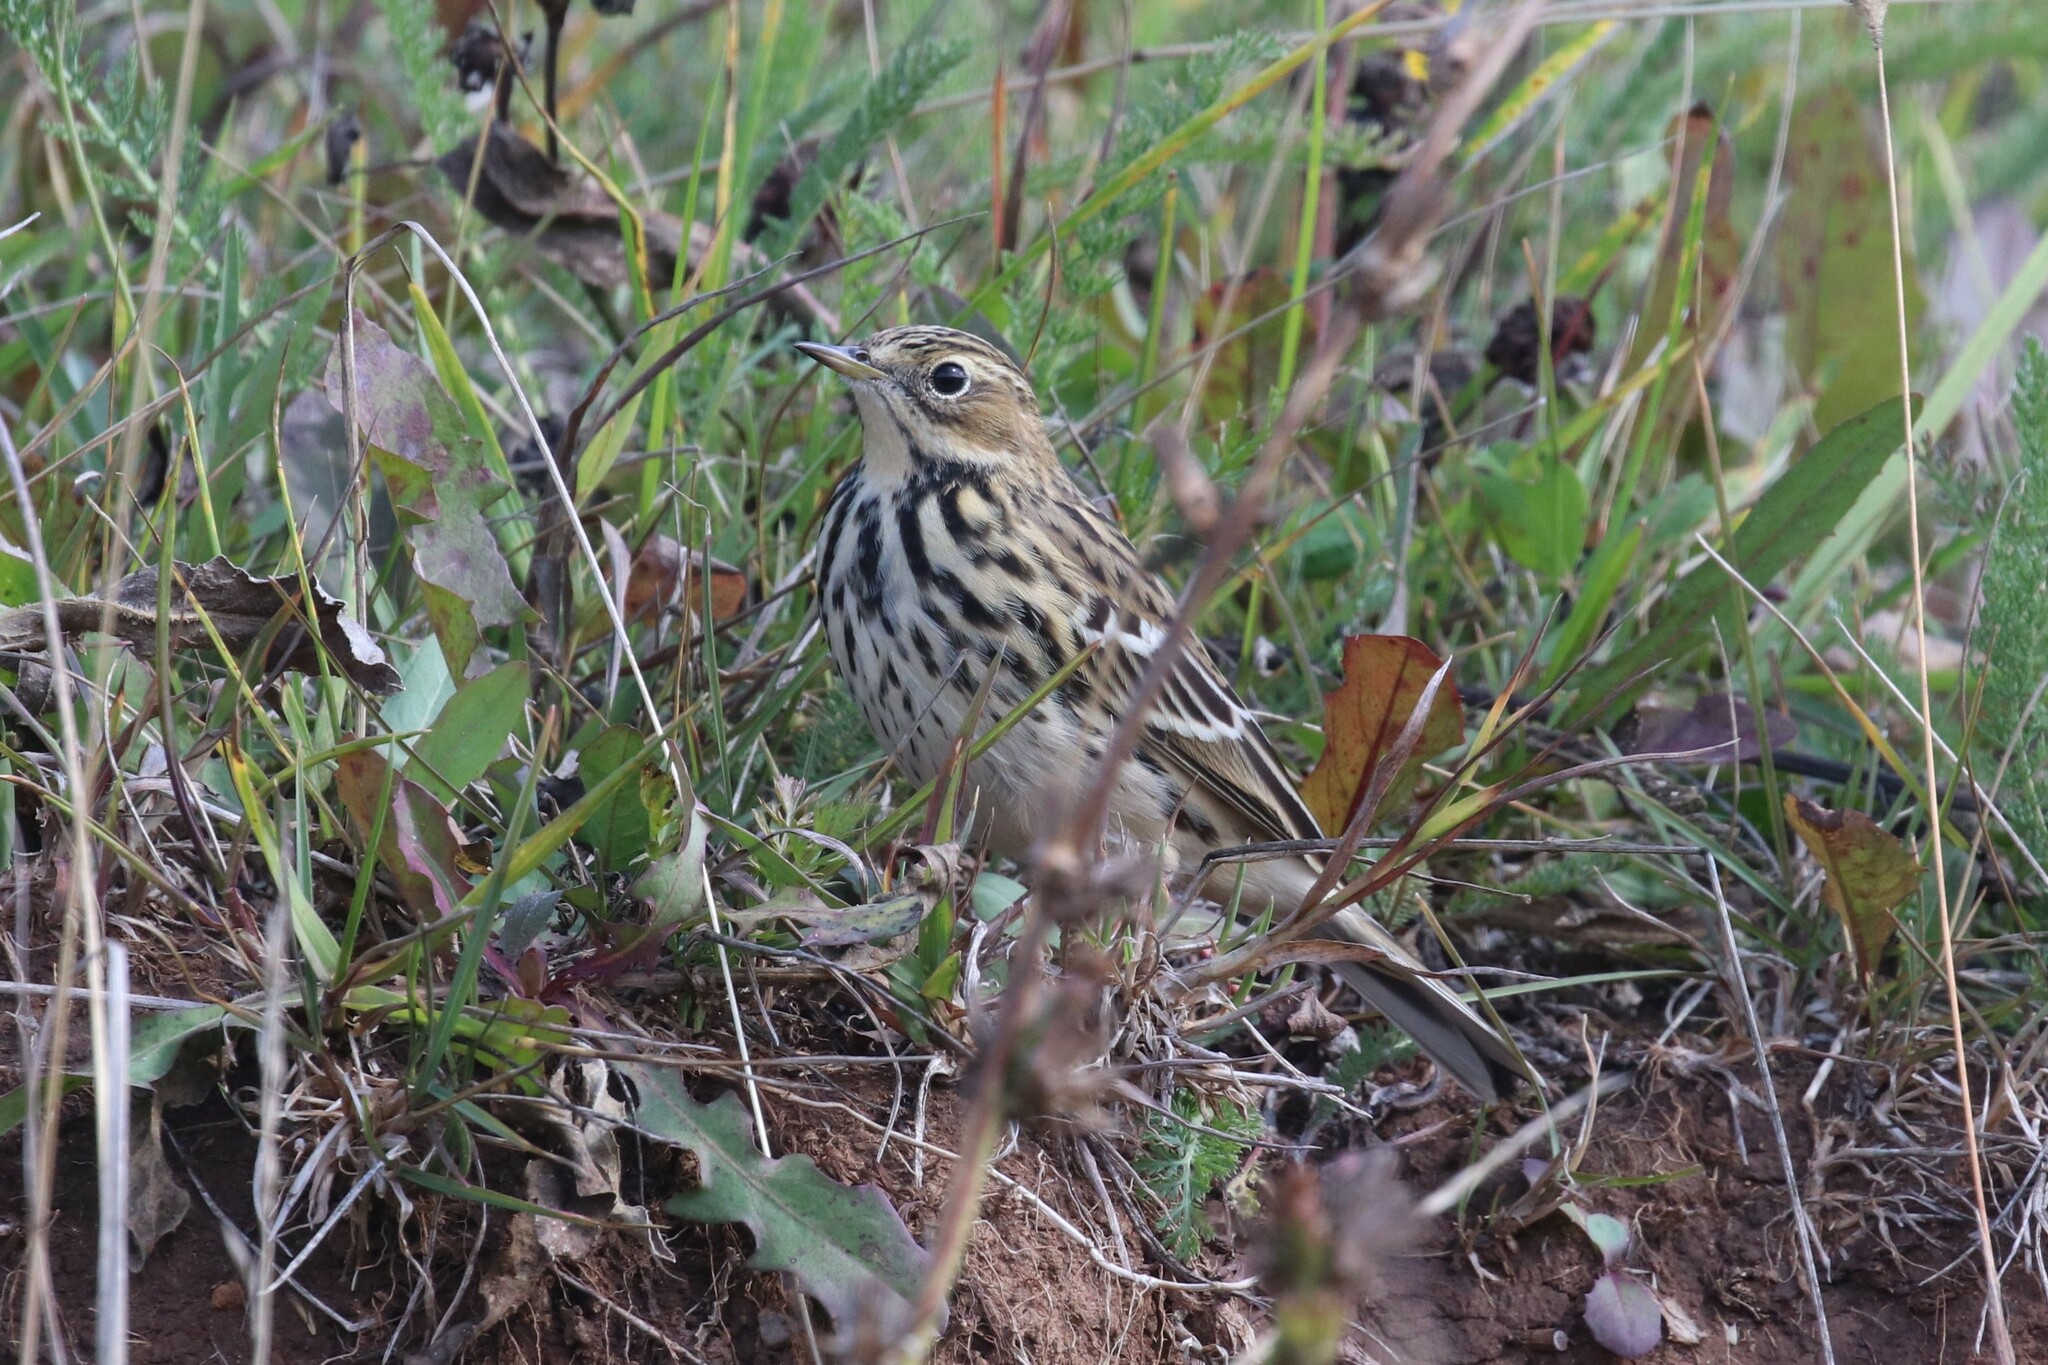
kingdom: Animalia
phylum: Chordata
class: Aves
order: Passeriformes
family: Motacillidae
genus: Anthus
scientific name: Anthus cervinus
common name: Red-throated pipit
